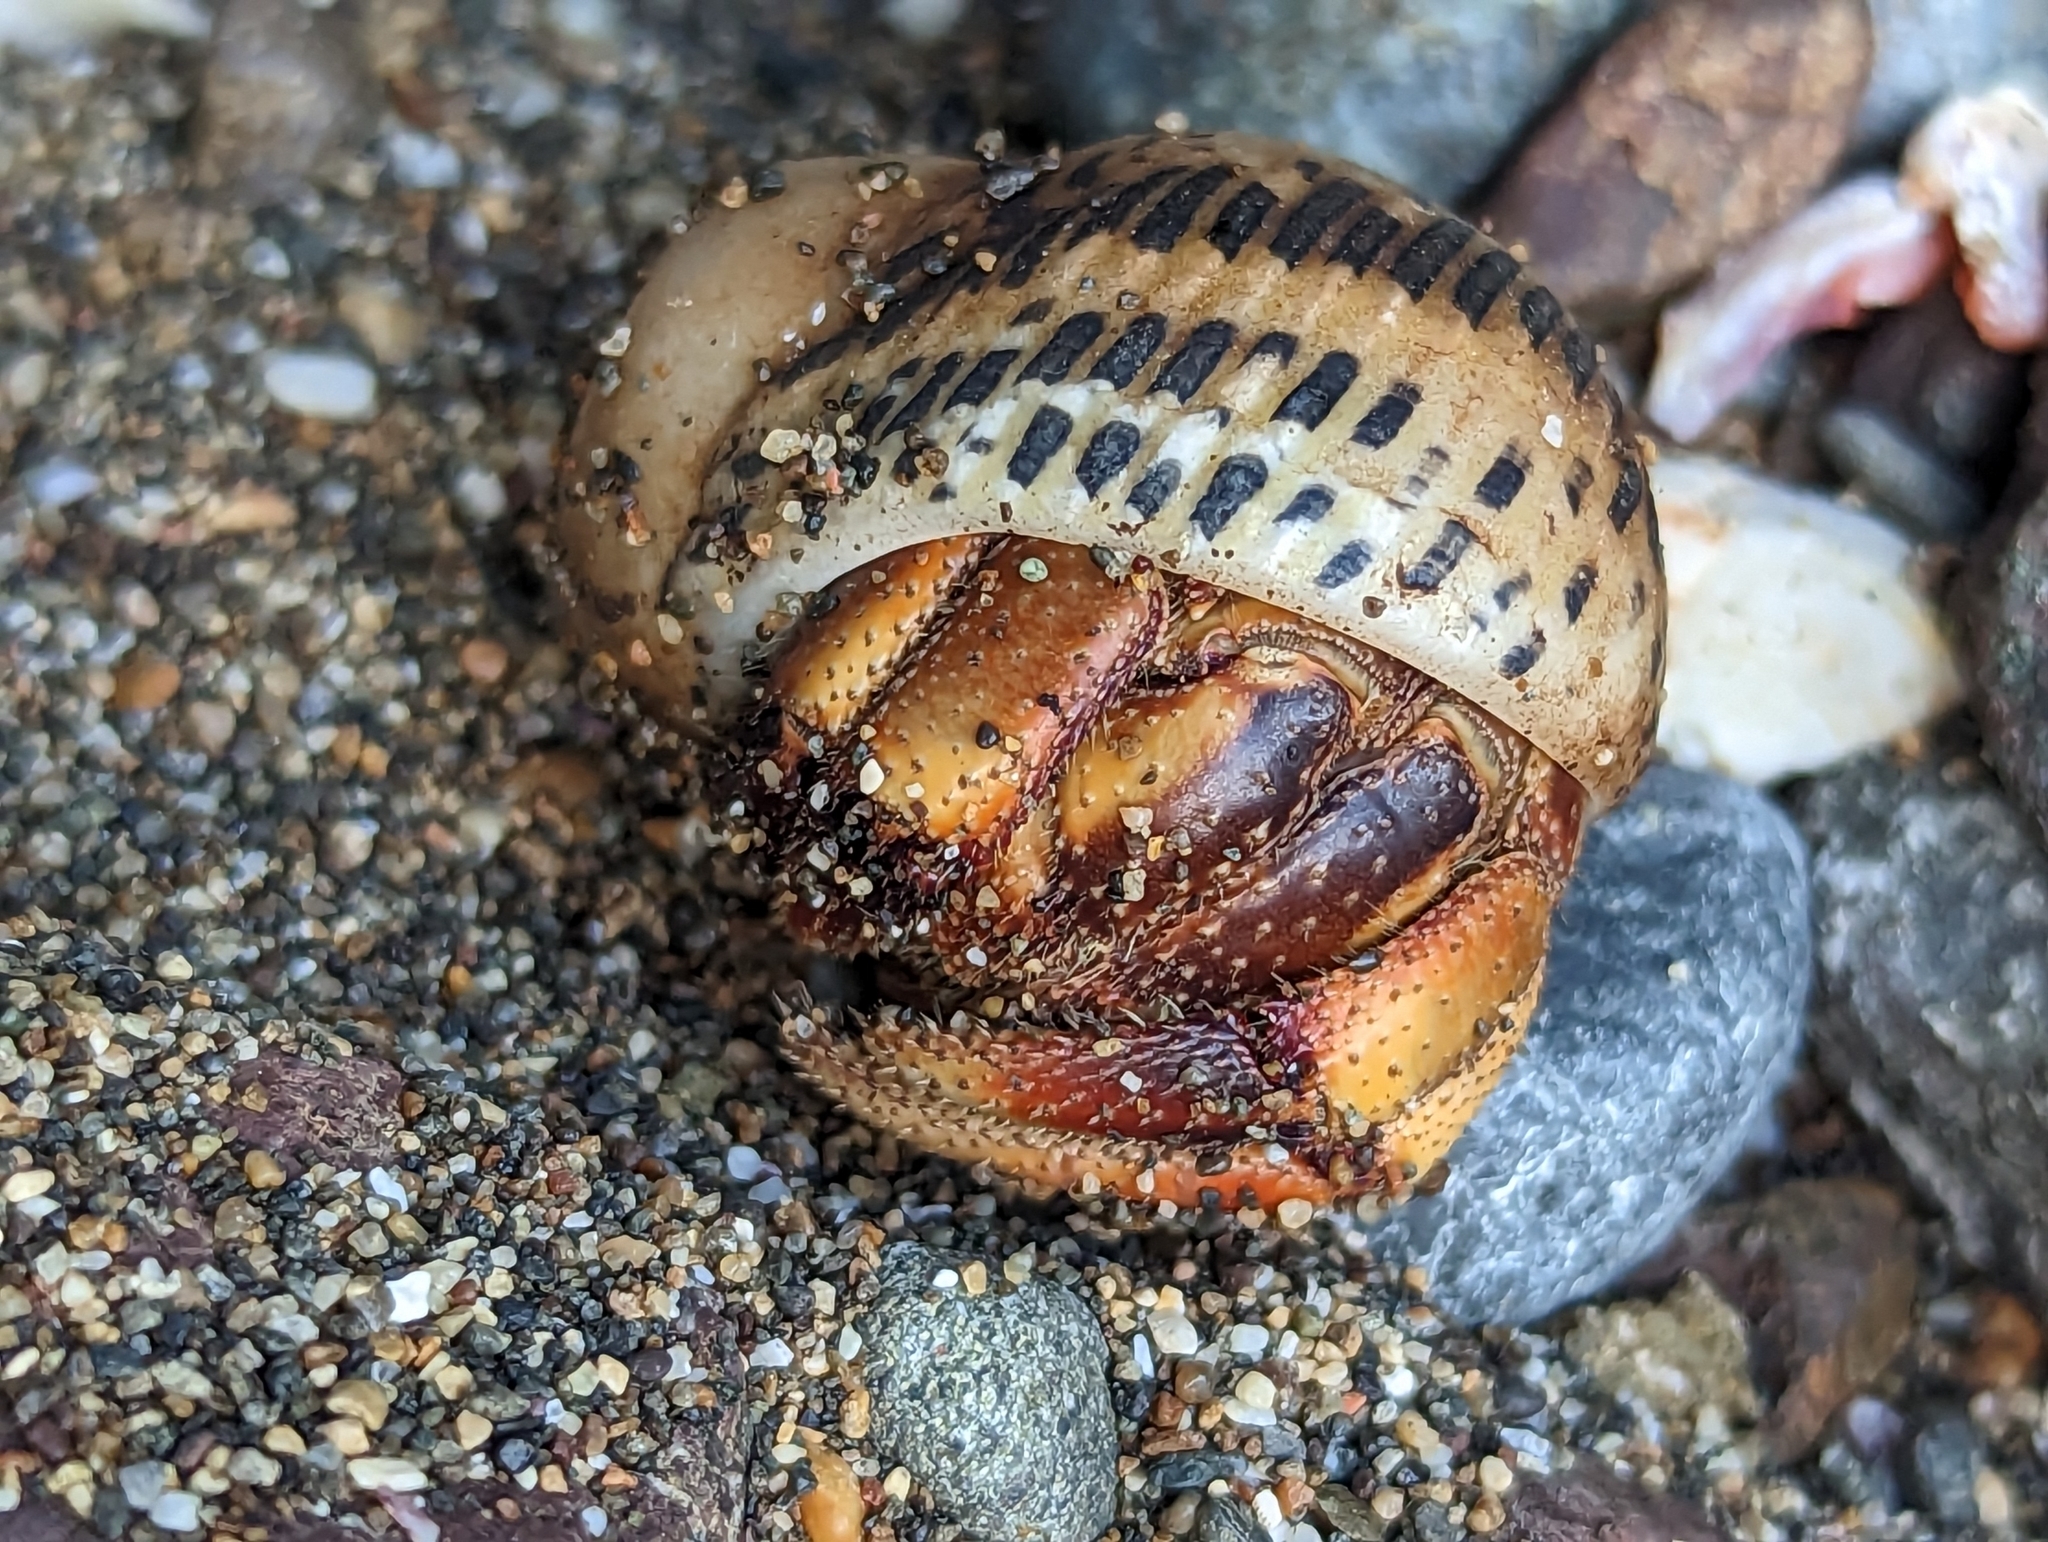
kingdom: Animalia
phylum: Arthropoda
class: Malacostraca
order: Decapoda
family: Coenobitidae
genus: Coenobita
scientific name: Coenobita compressus
